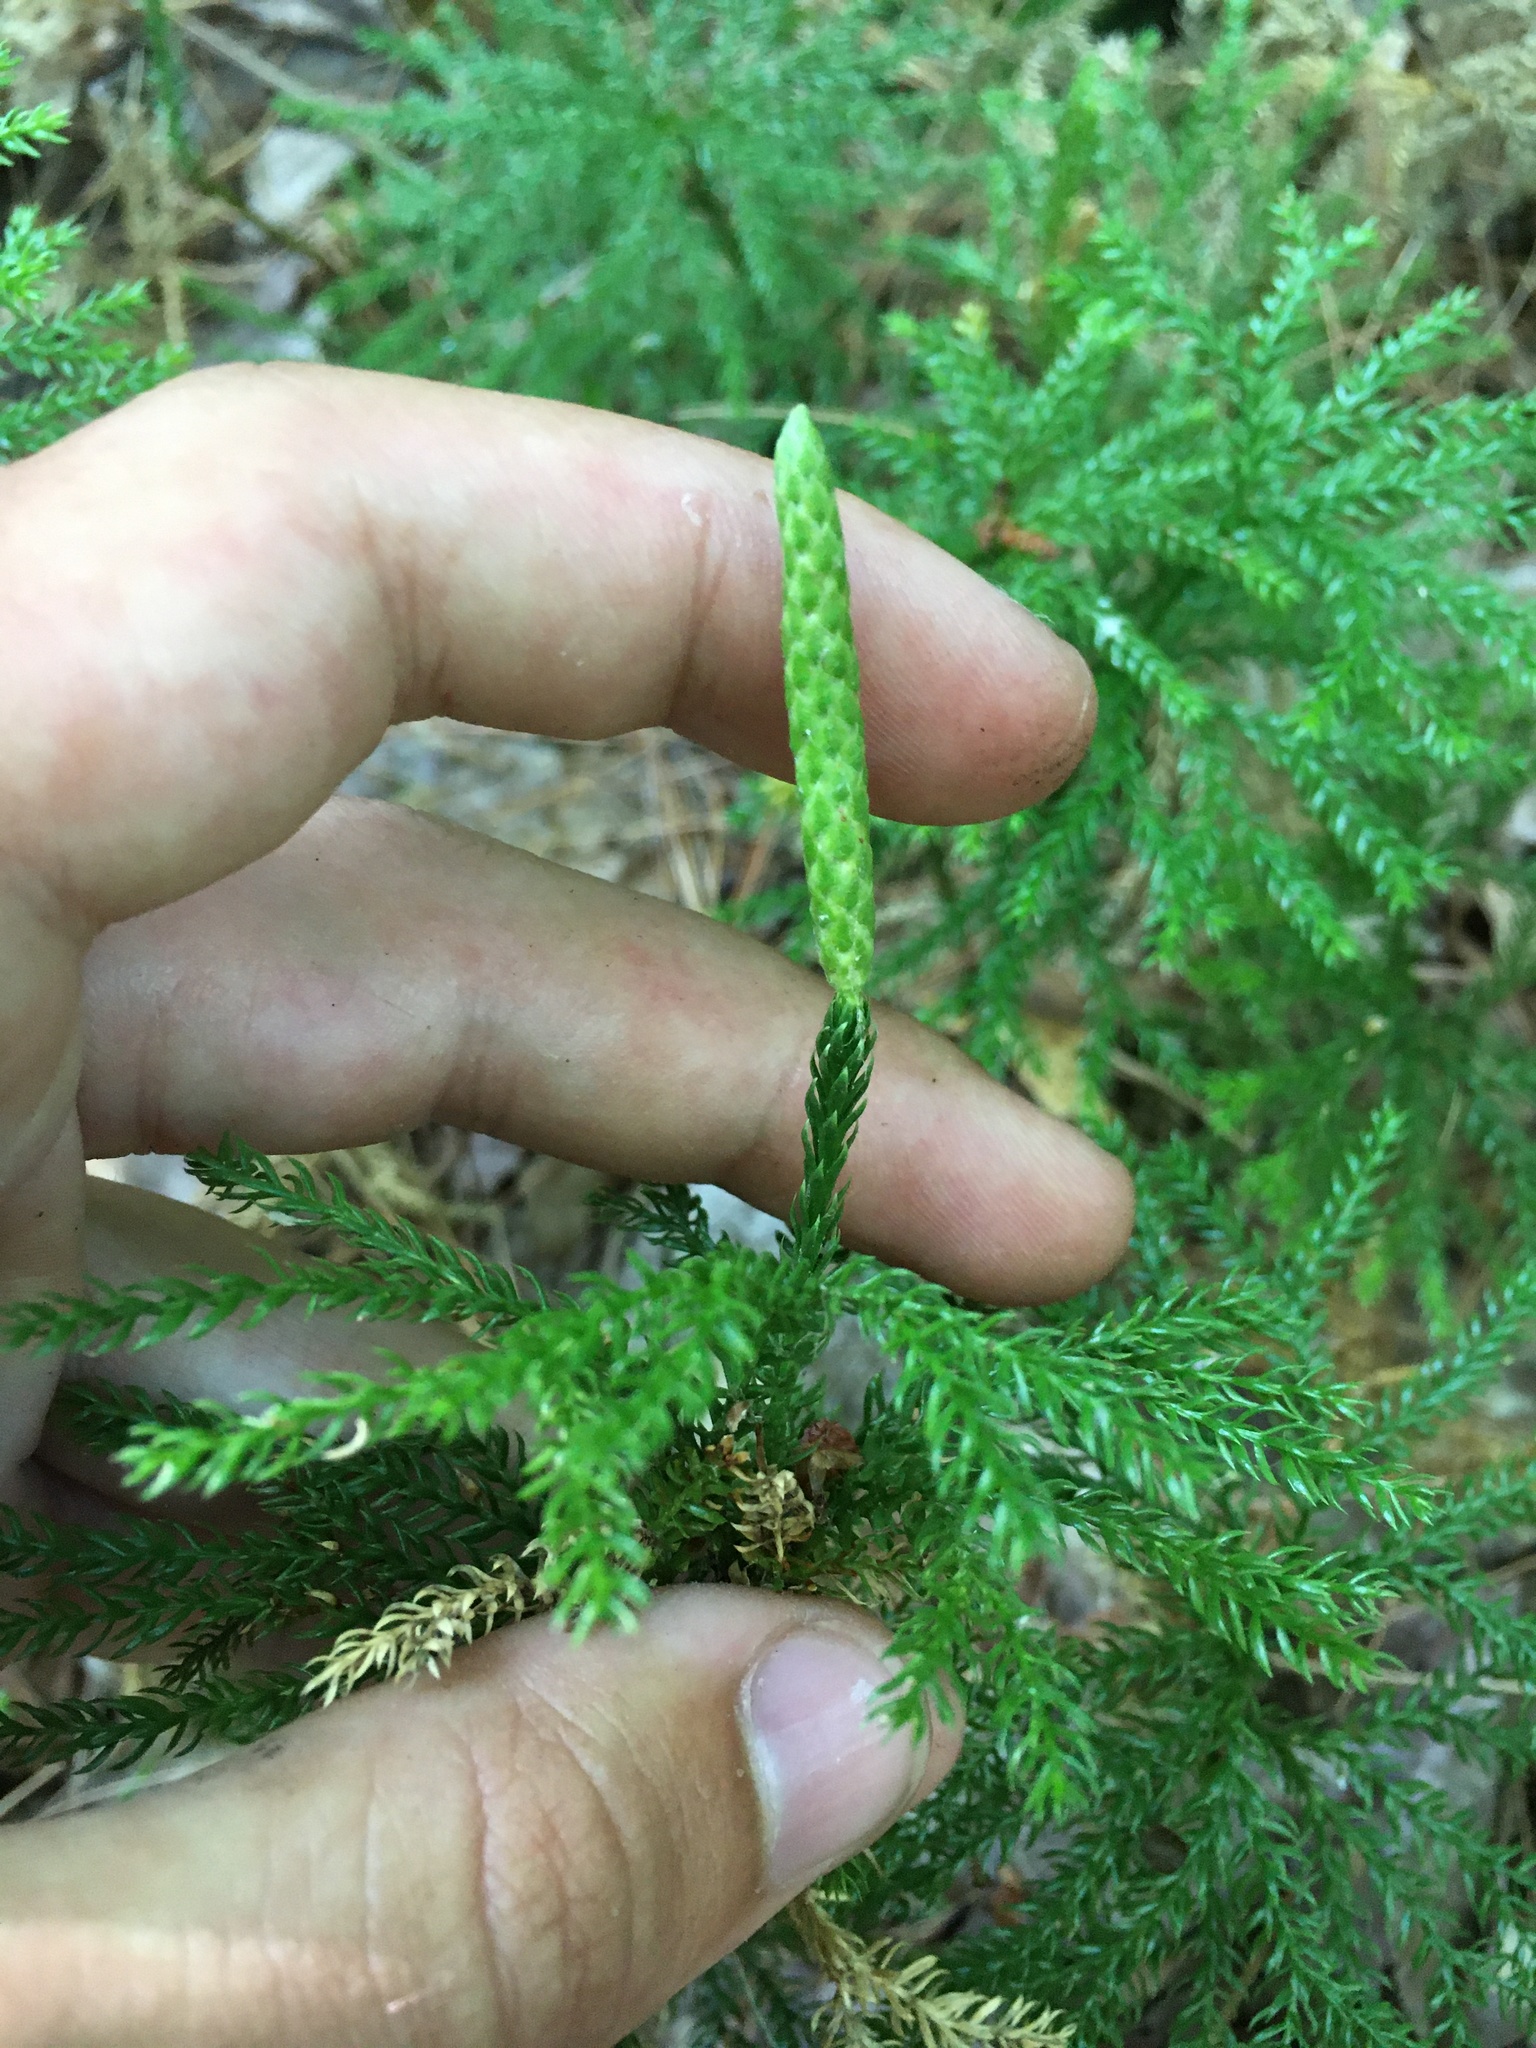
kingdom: Plantae
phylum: Tracheophyta
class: Lycopodiopsida
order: Lycopodiales
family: Lycopodiaceae
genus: Dendrolycopodium
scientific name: Dendrolycopodium dendroideum
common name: Northern tree-clubmoss
